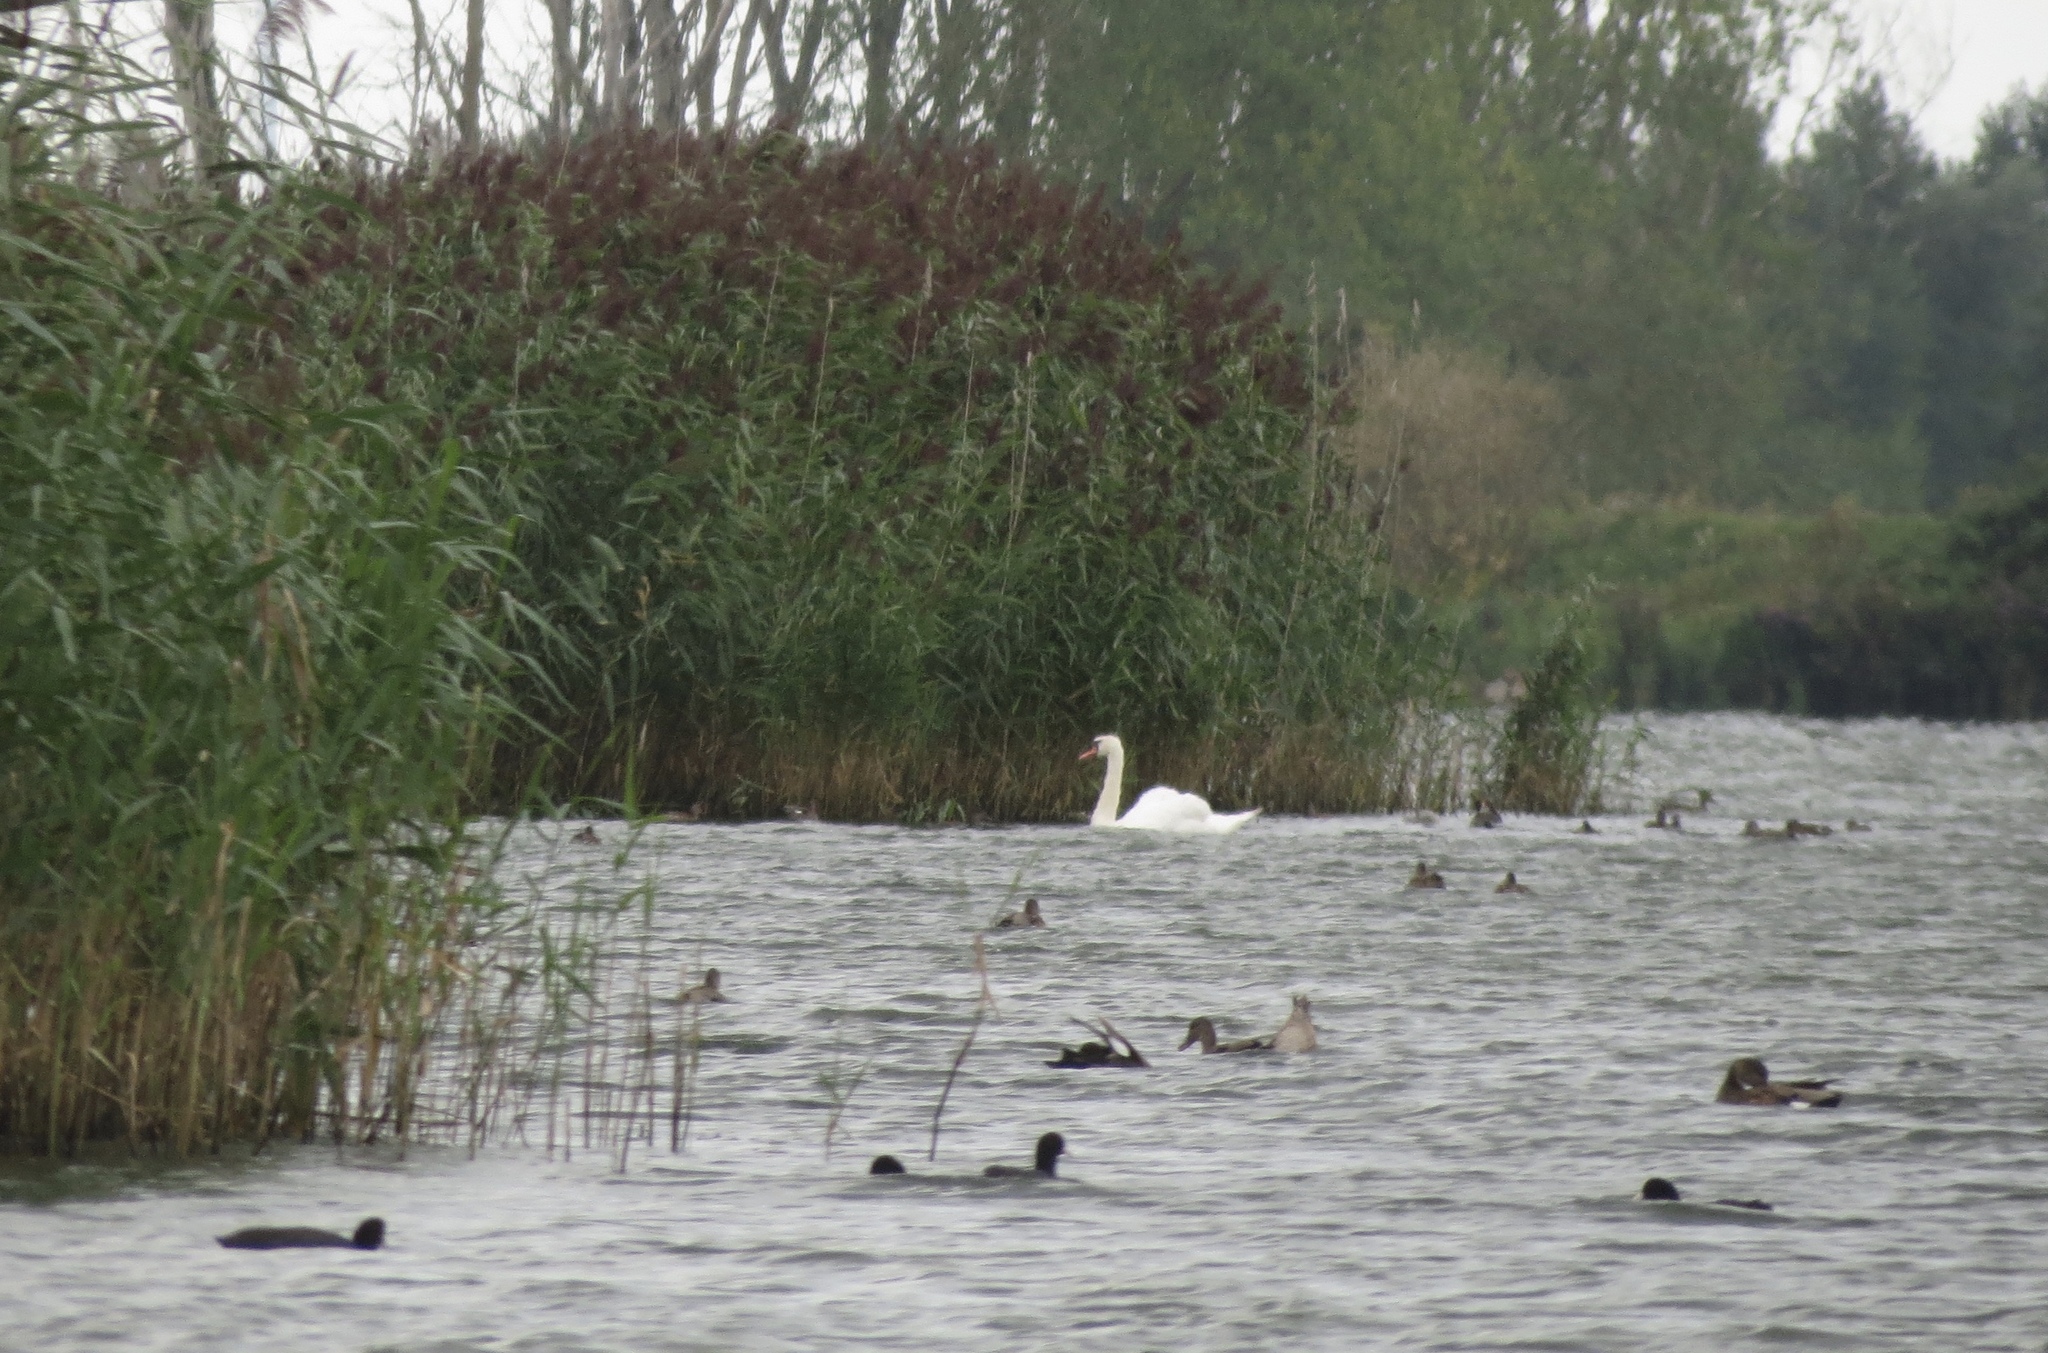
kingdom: Animalia
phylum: Chordata
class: Aves
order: Anseriformes
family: Anatidae
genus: Cygnus
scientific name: Cygnus olor
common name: Mute swan
